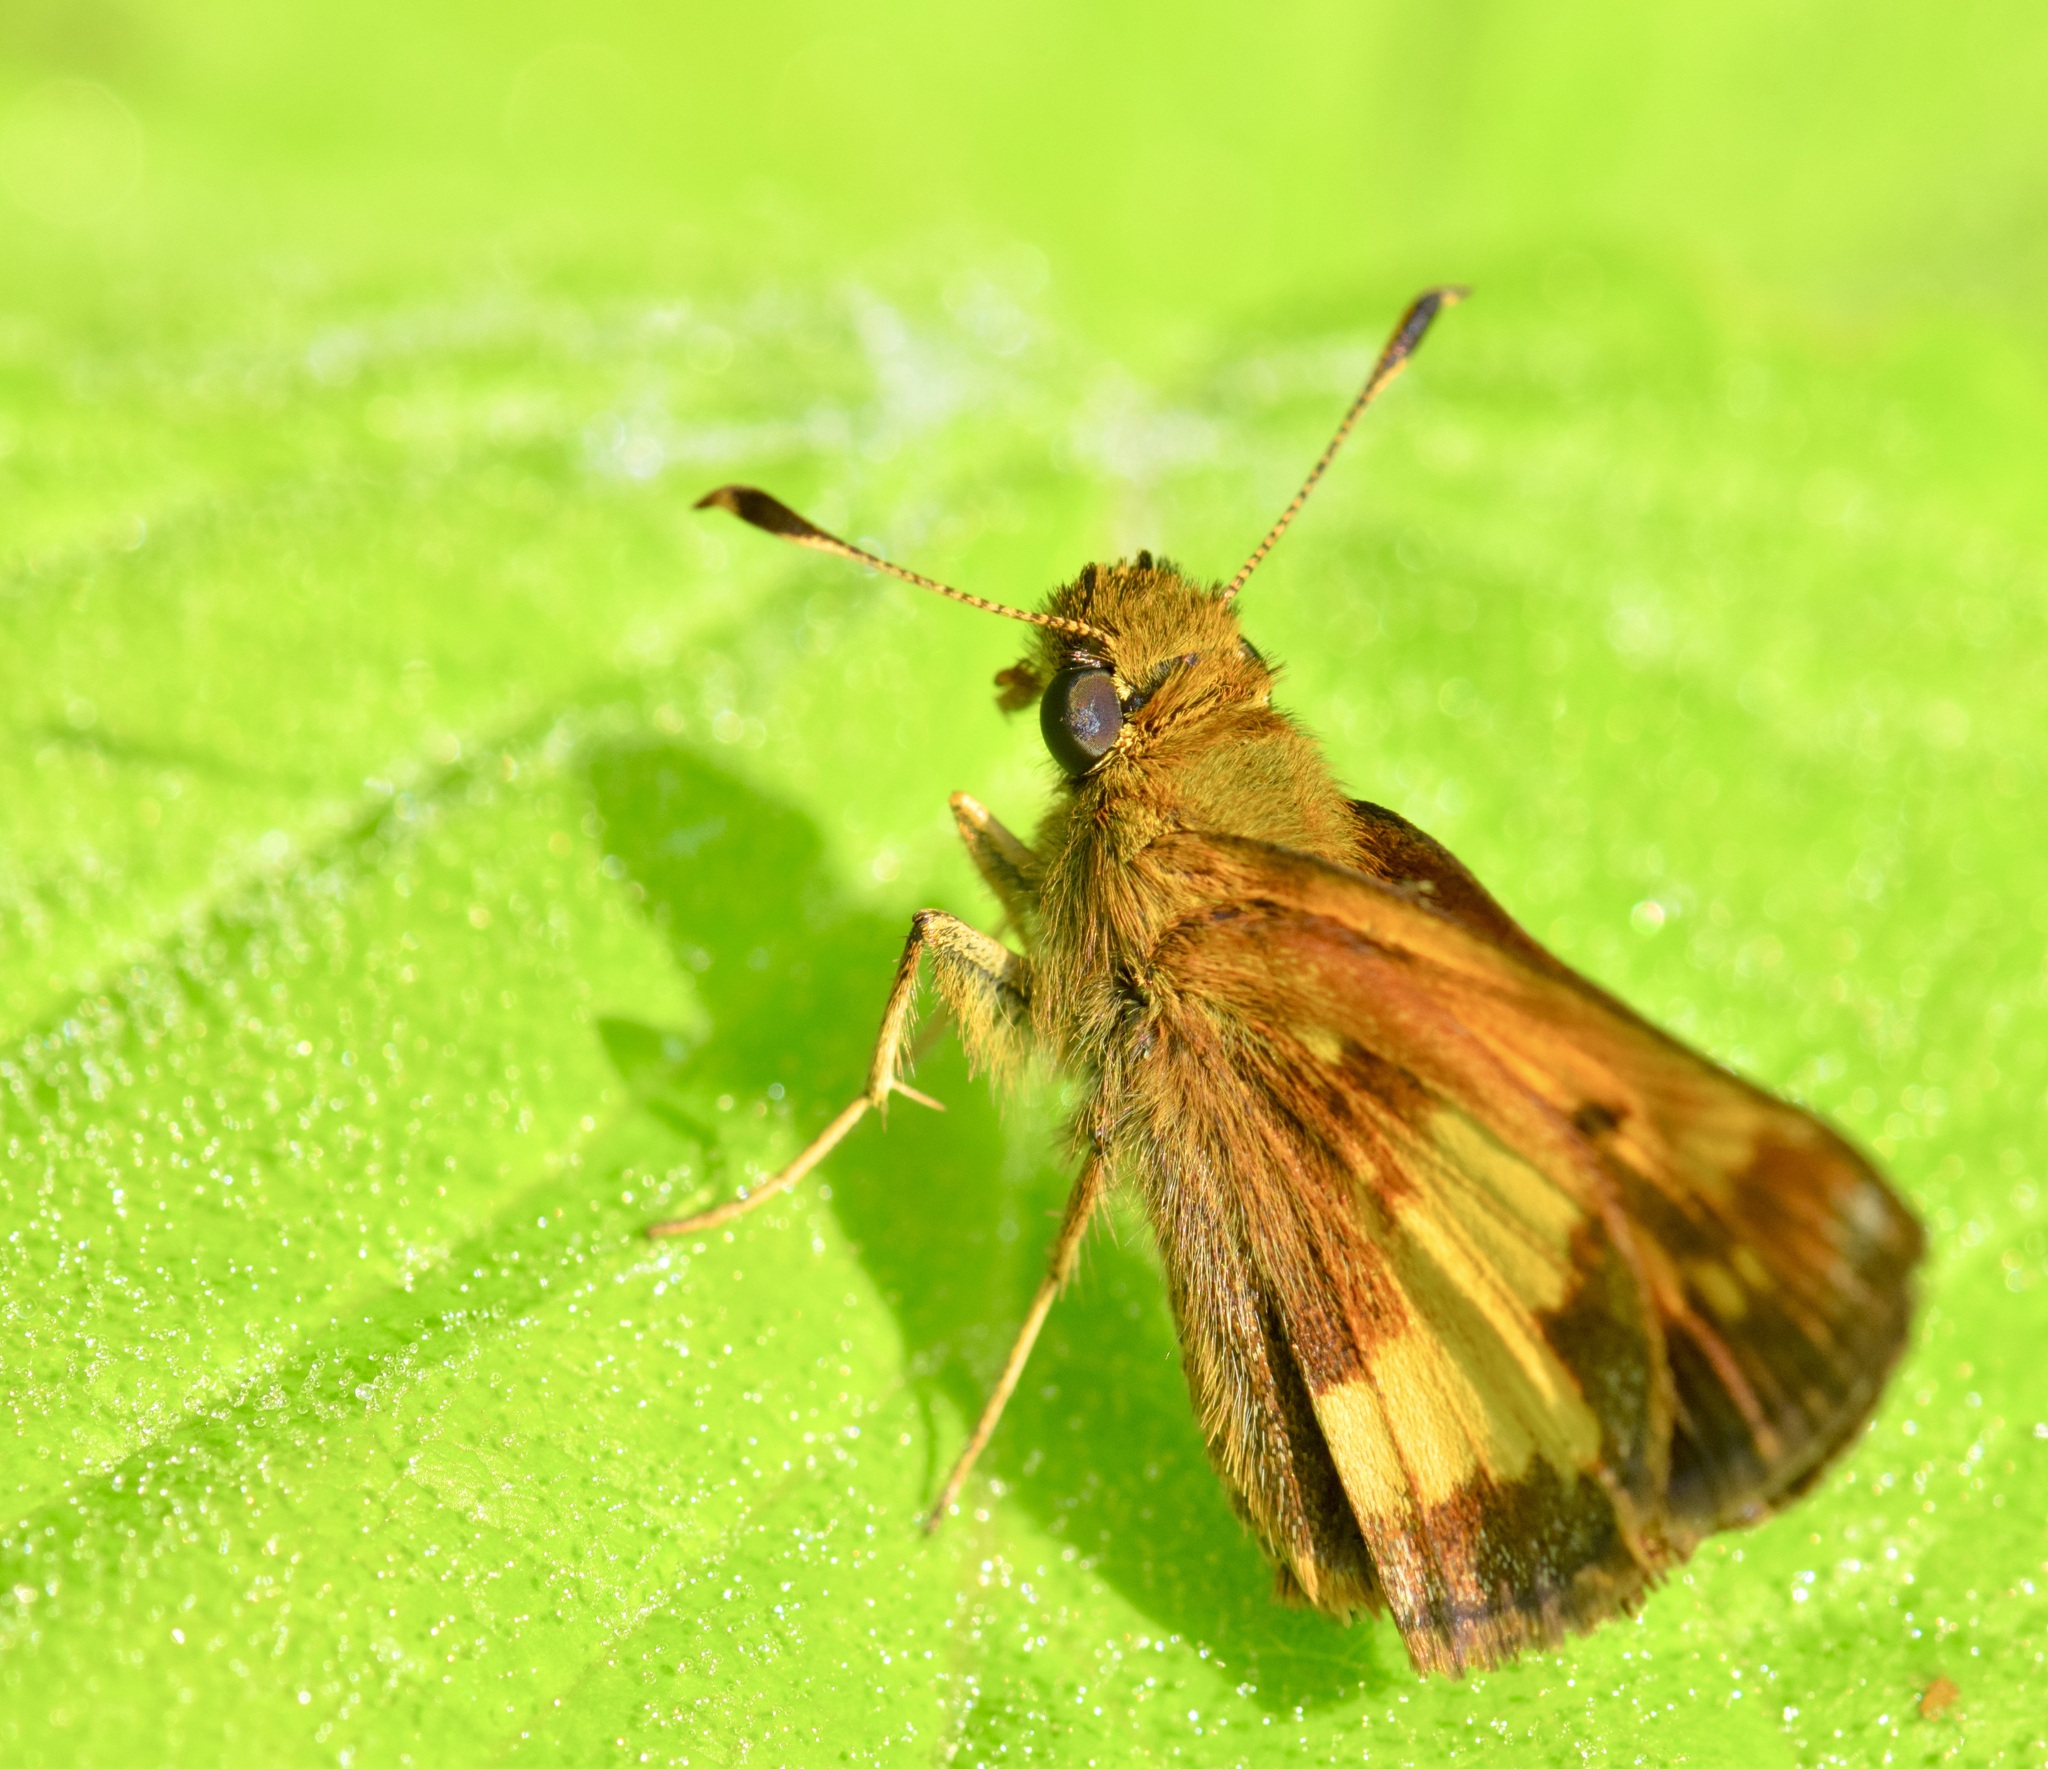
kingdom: Animalia
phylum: Arthropoda
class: Insecta
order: Lepidoptera
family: Hesperiidae
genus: Lon
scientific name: Lon hobomok
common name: Hobomok skipper
